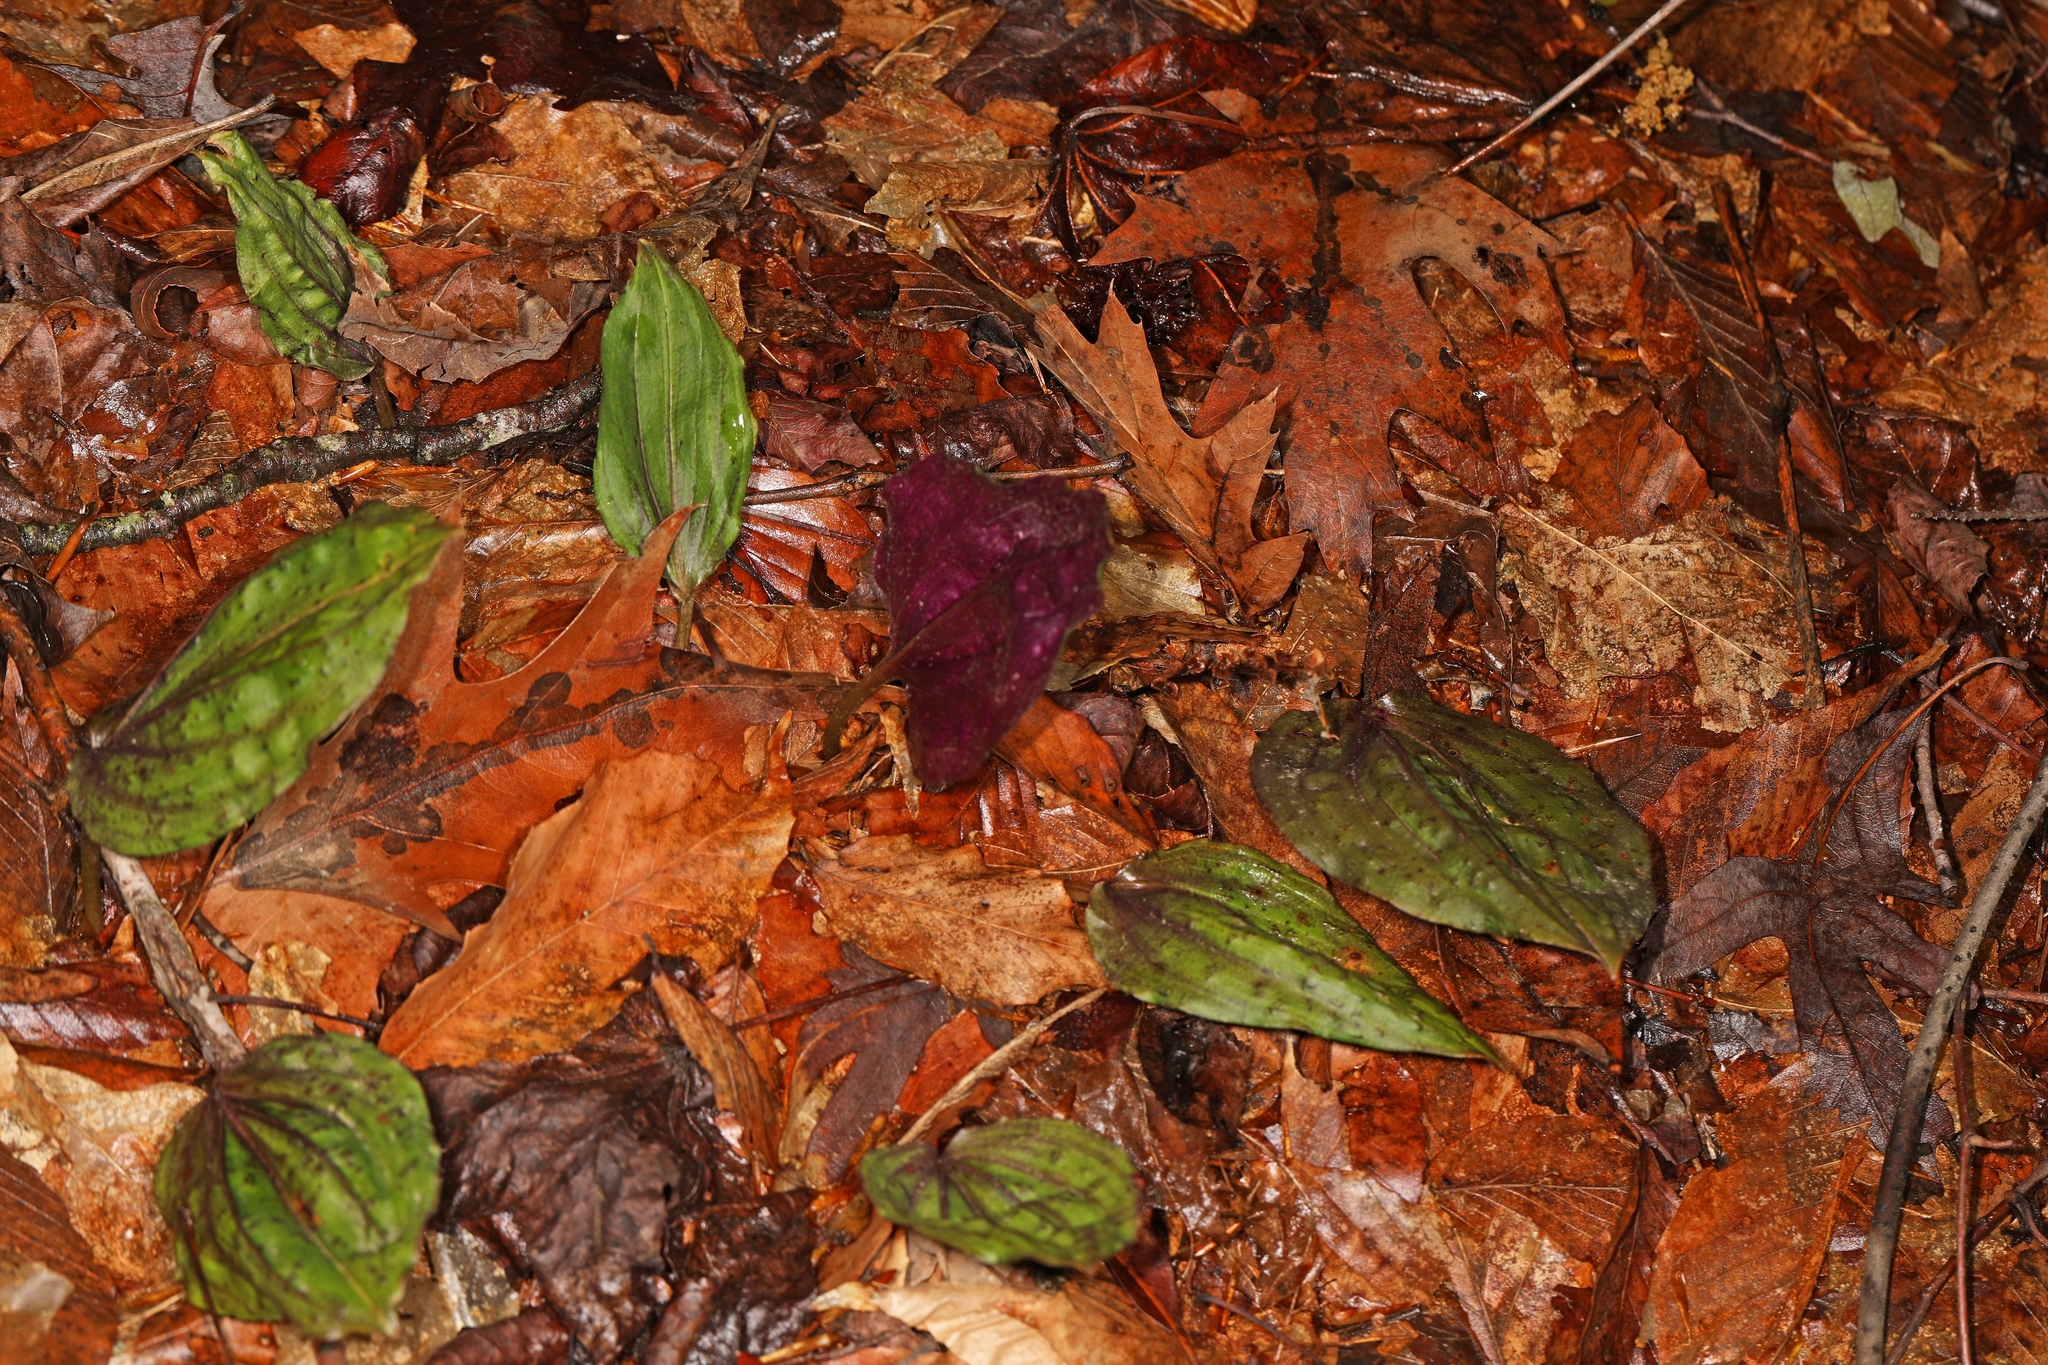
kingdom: Plantae
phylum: Tracheophyta
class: Liliopsida
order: Asparagales
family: Orchidaceae
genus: Tipularia
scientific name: Tipularia discolor
